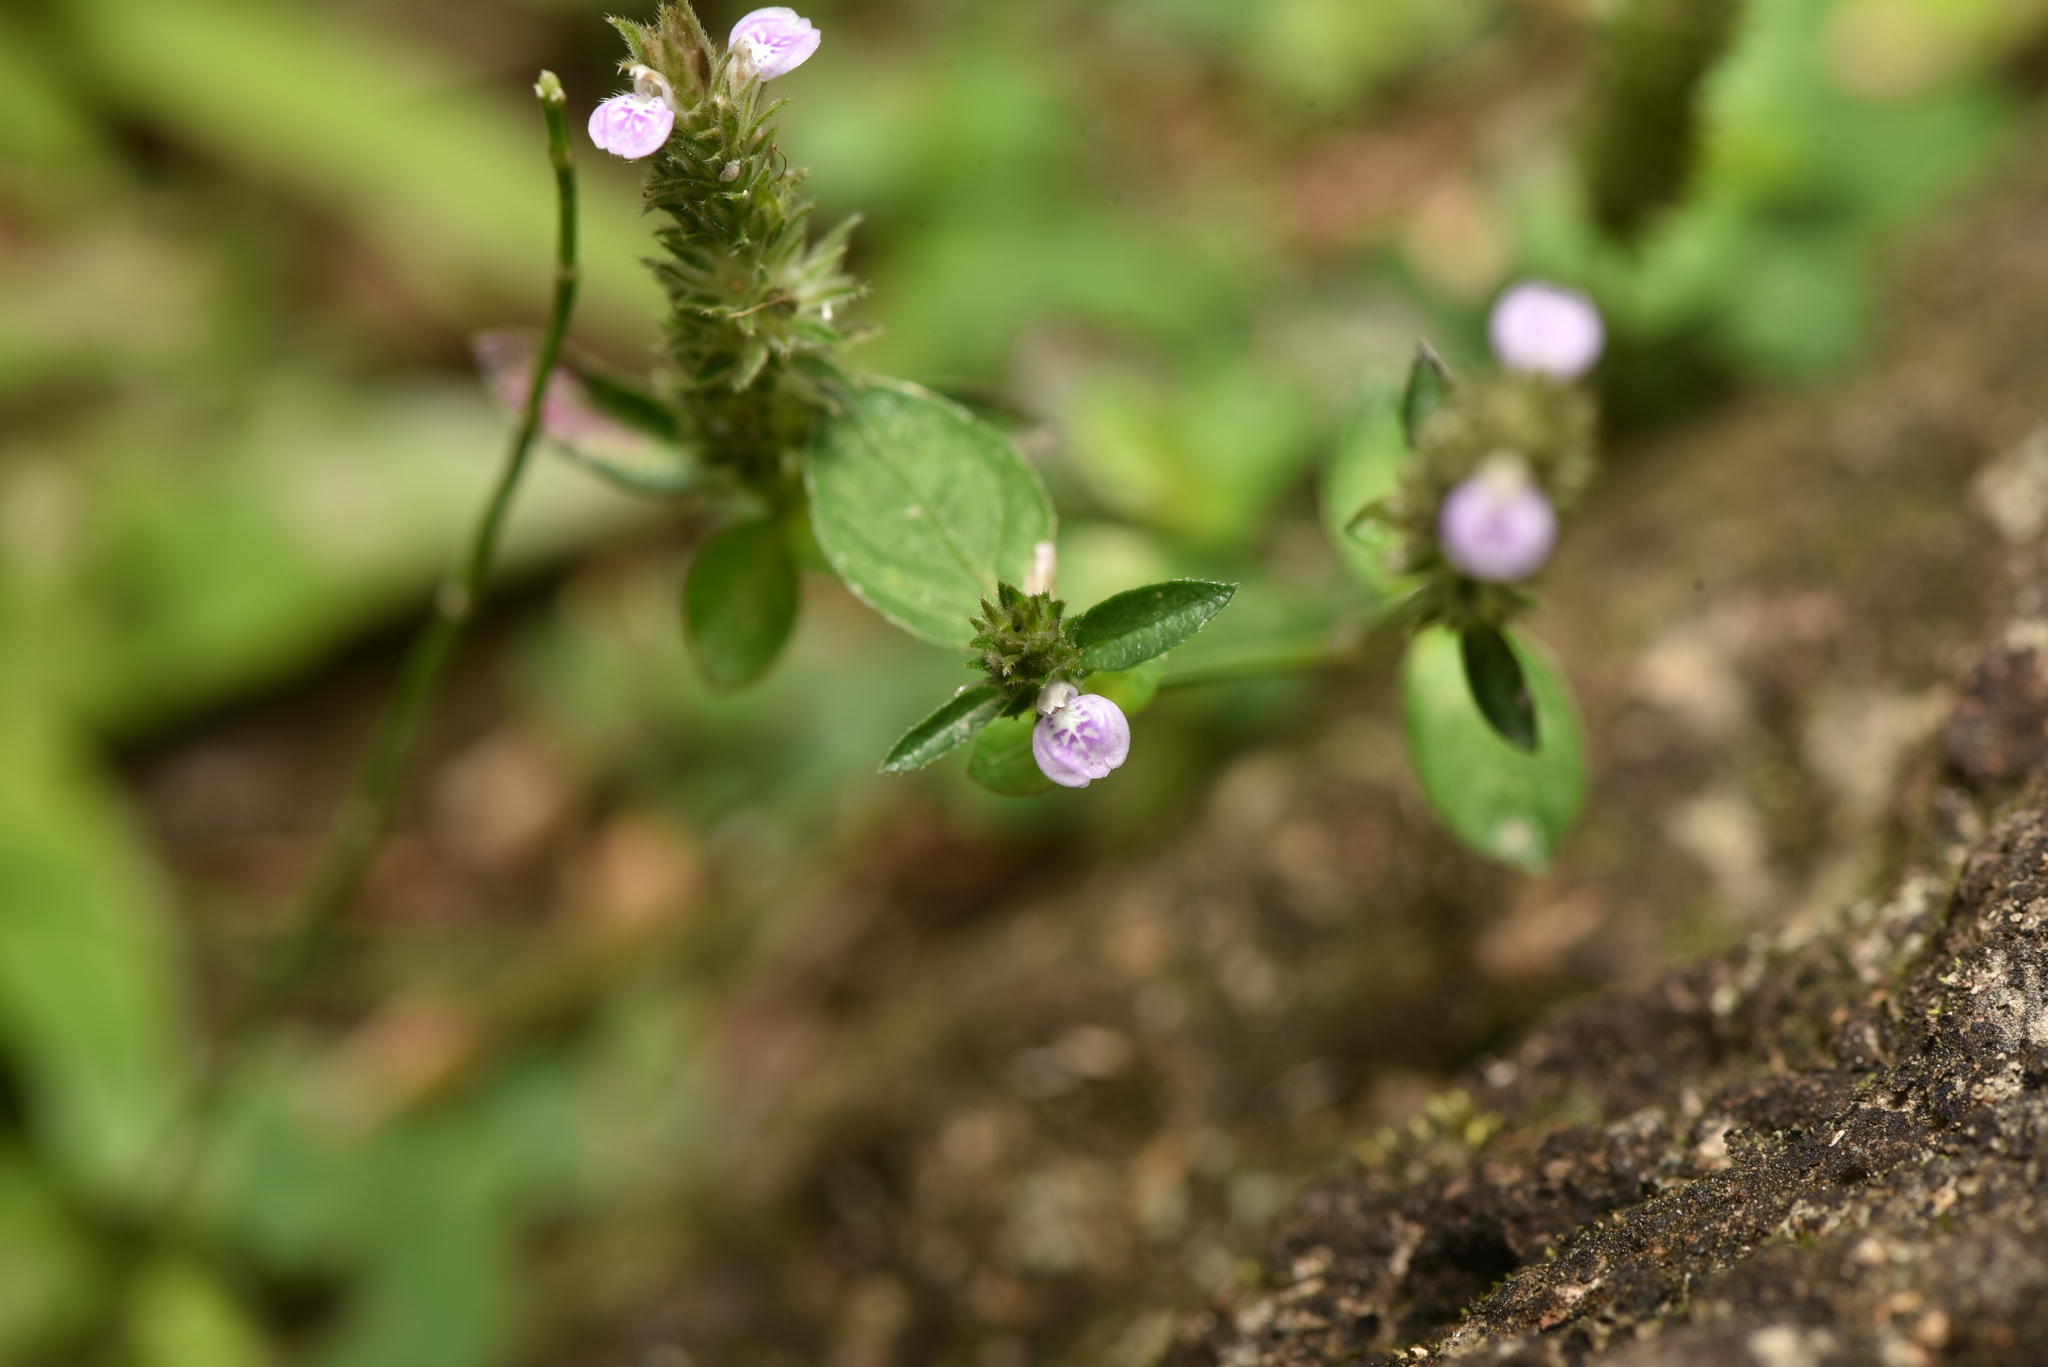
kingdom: Plantae
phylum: Tracheophyta
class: Magnoliopsida
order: Lamiales
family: Acanthaceae
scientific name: Acanthaceae
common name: Acanthaceae
